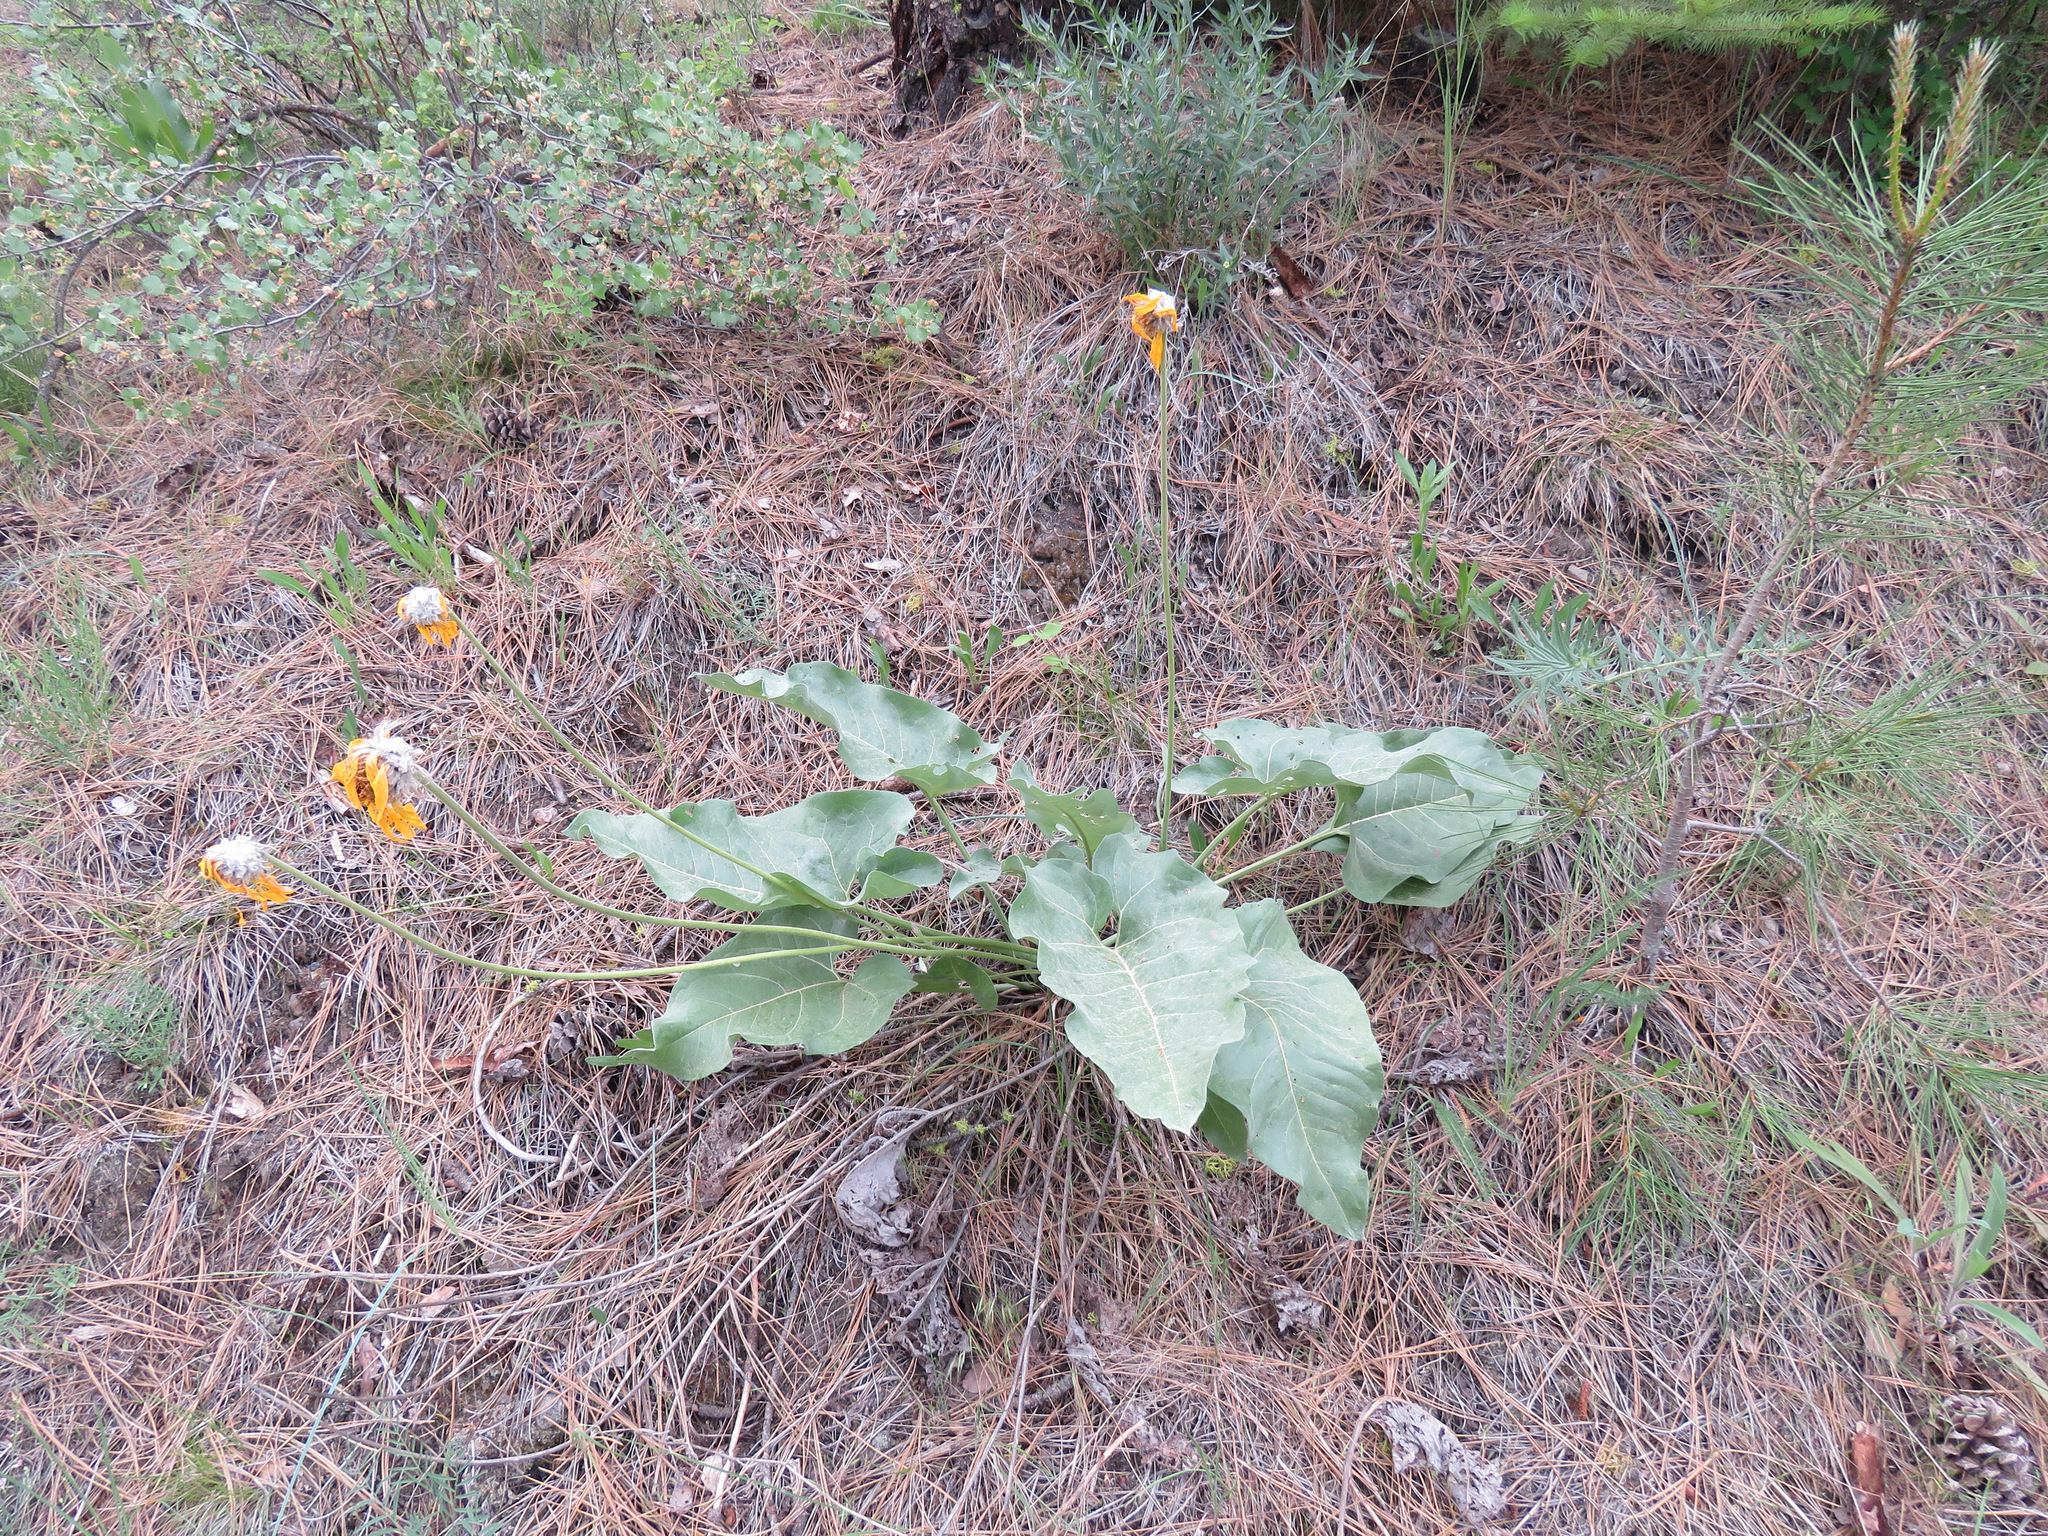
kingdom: Plantae
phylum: Tracheophyta
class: Magnoliopsida
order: Asterales
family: Asteraceae
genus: Wyethia
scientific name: Wyethia sagittata
